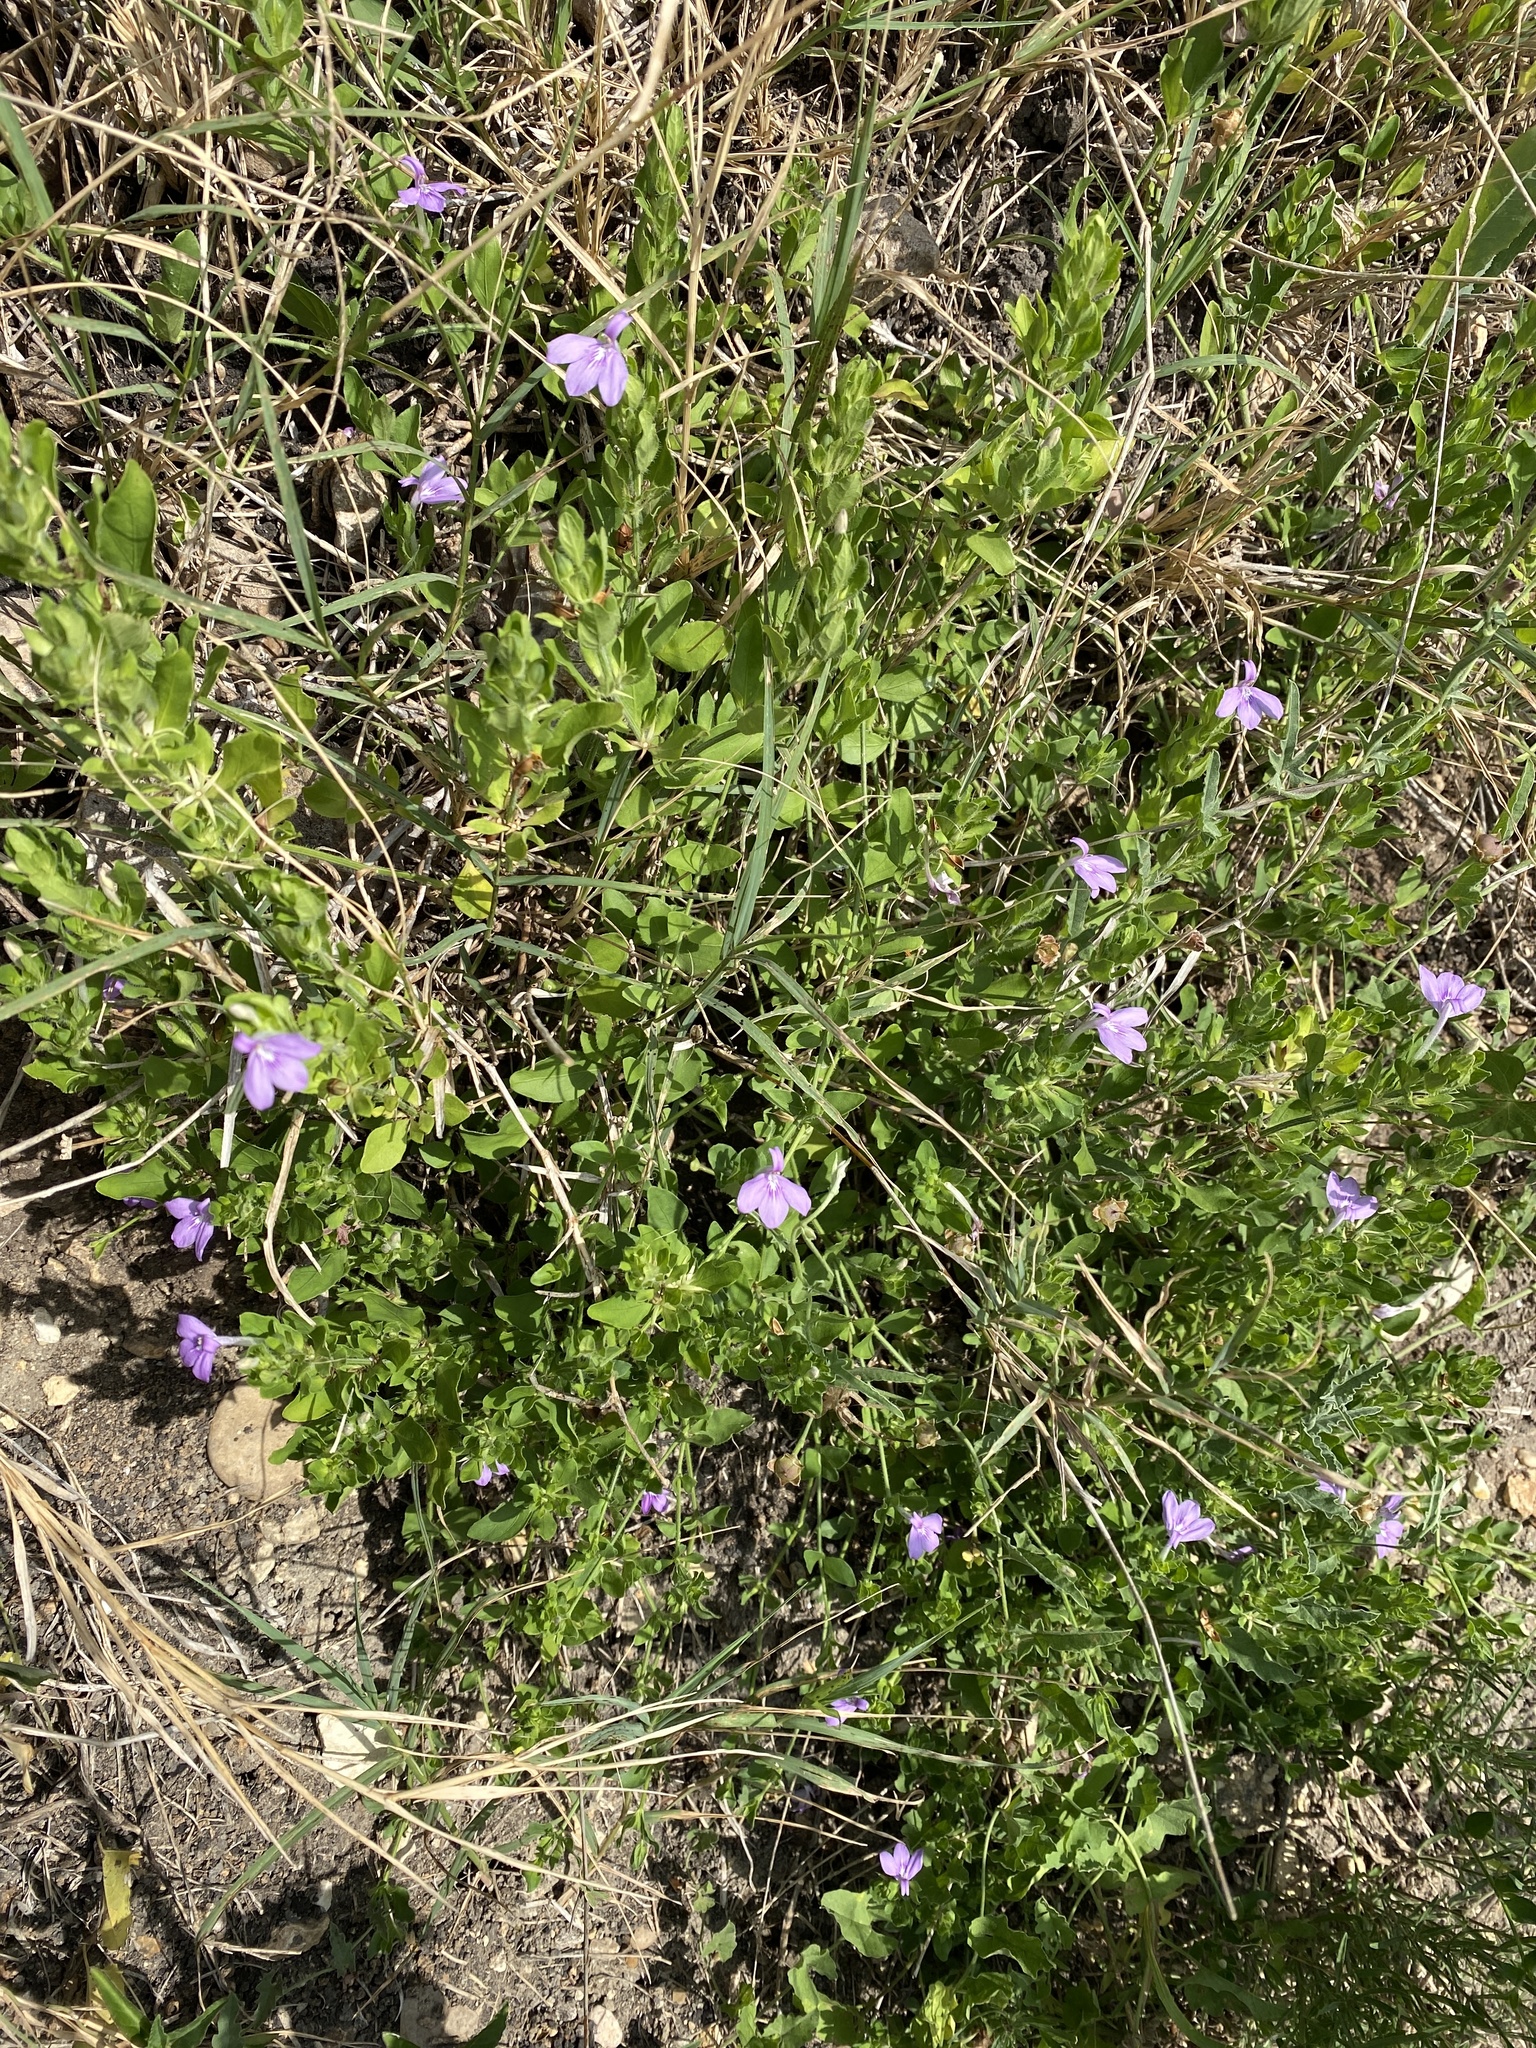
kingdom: Plantae
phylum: Tracheophyta
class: Magnoliopsida
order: Lamiales
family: Acanthaceae
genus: Justicia
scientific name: Justicia pilosella
